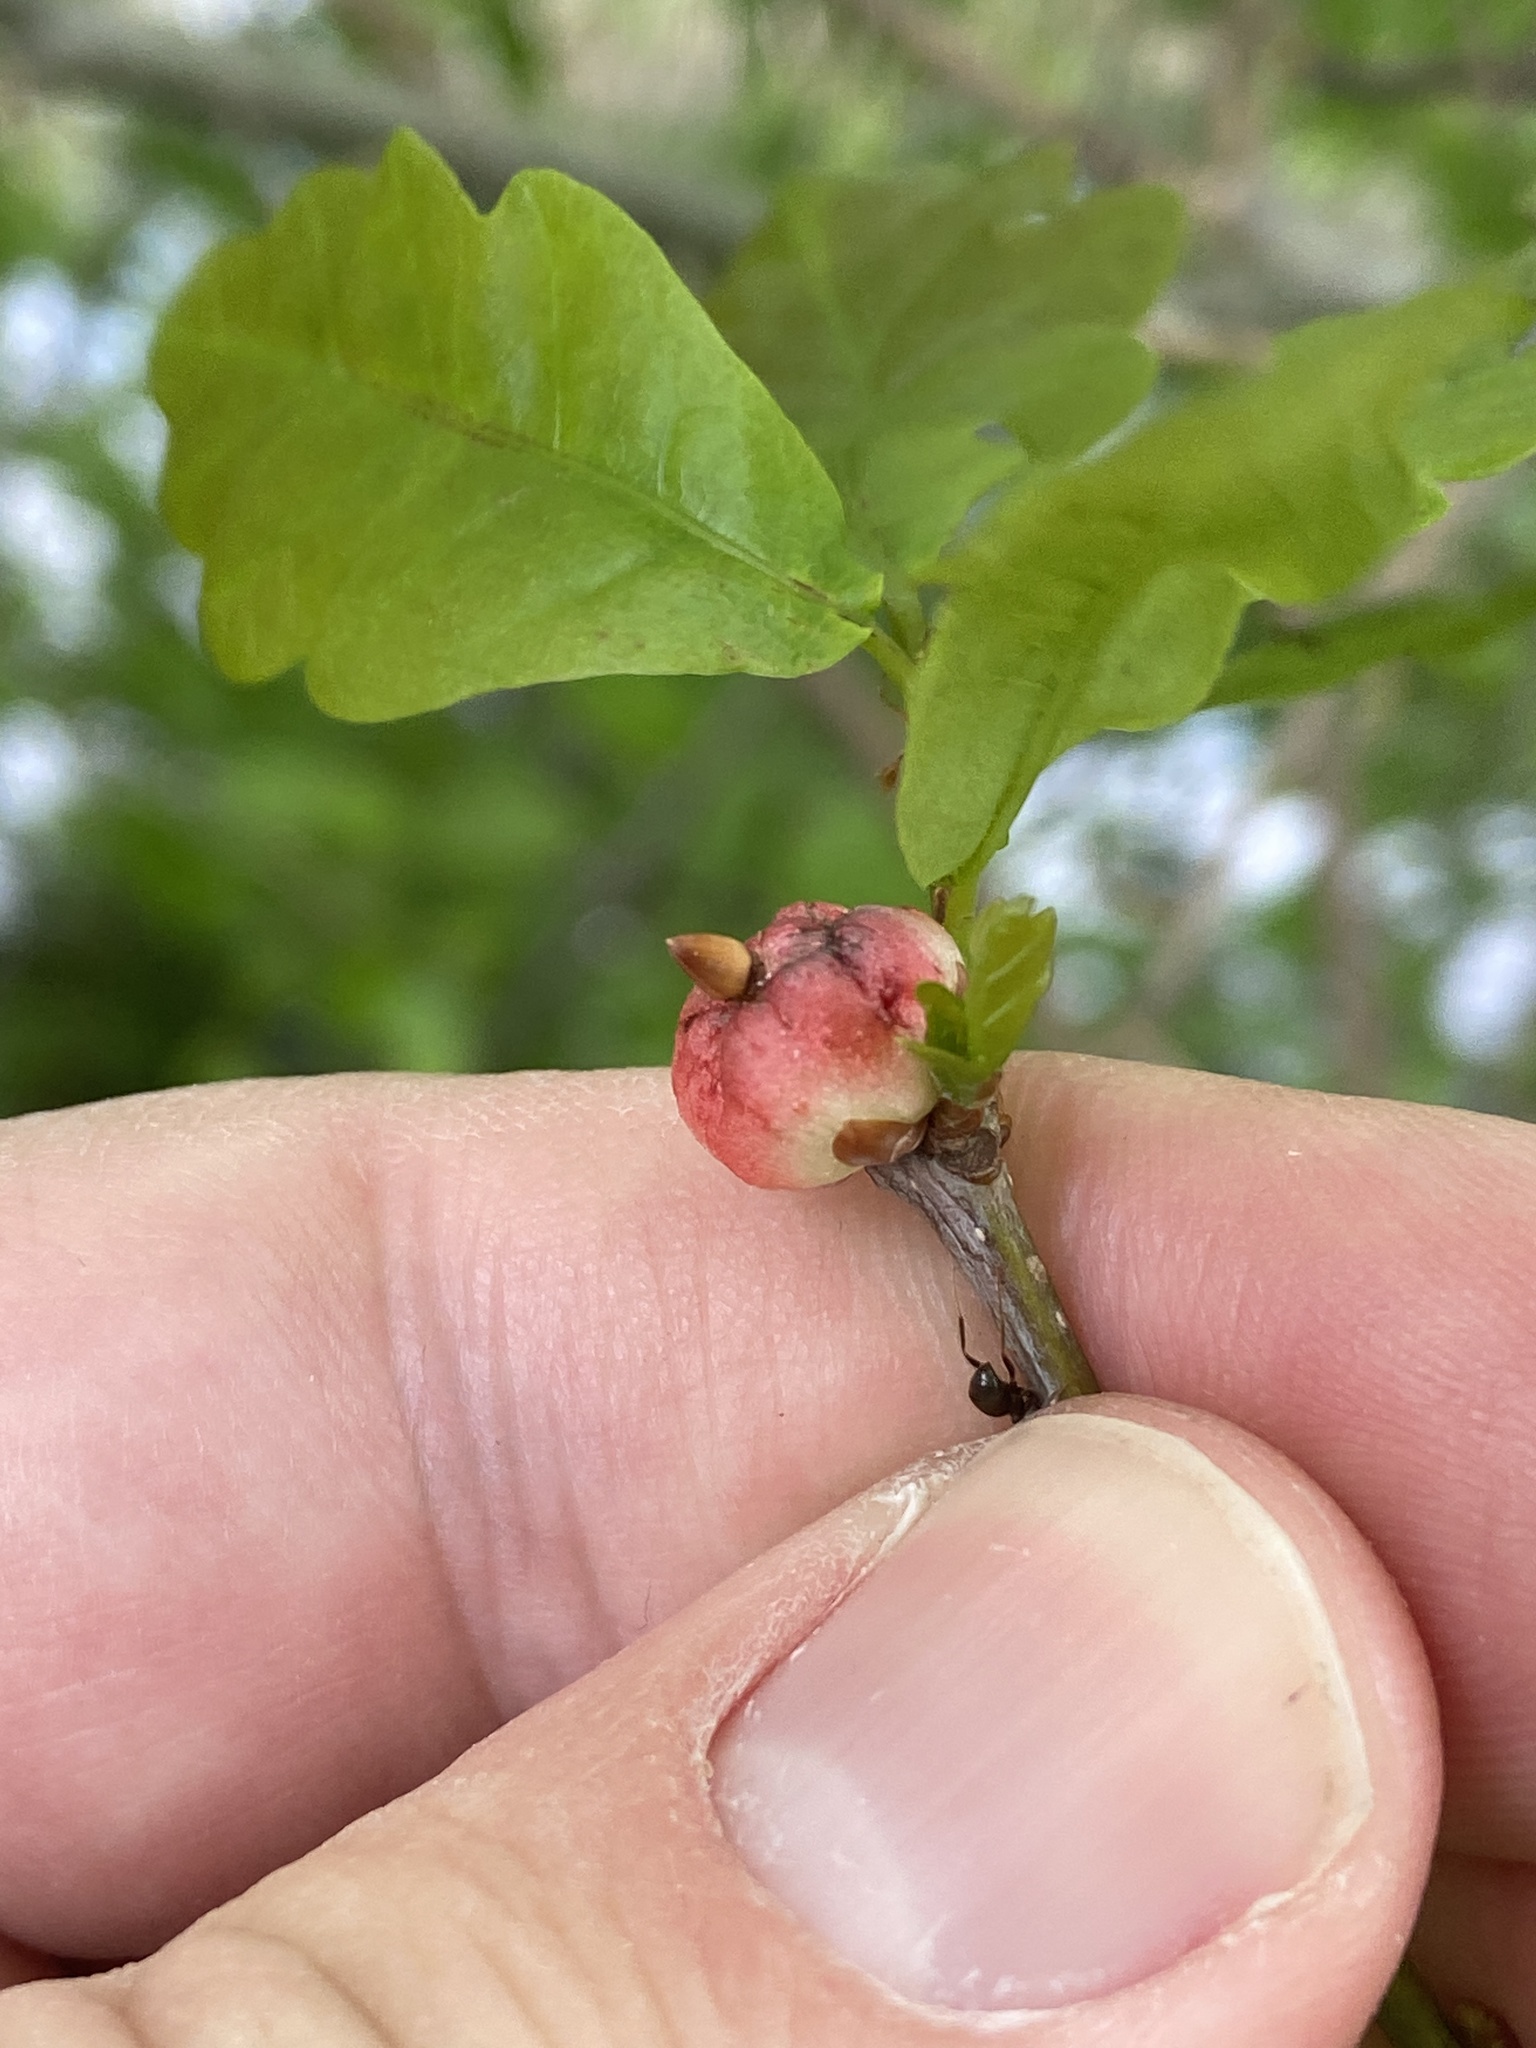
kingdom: Animalia
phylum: Arthropoda
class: Insecta
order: Hymenoptera
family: Cynipidae
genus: Biorhiza
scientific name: Biorhiza pallida
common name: Oak apple
